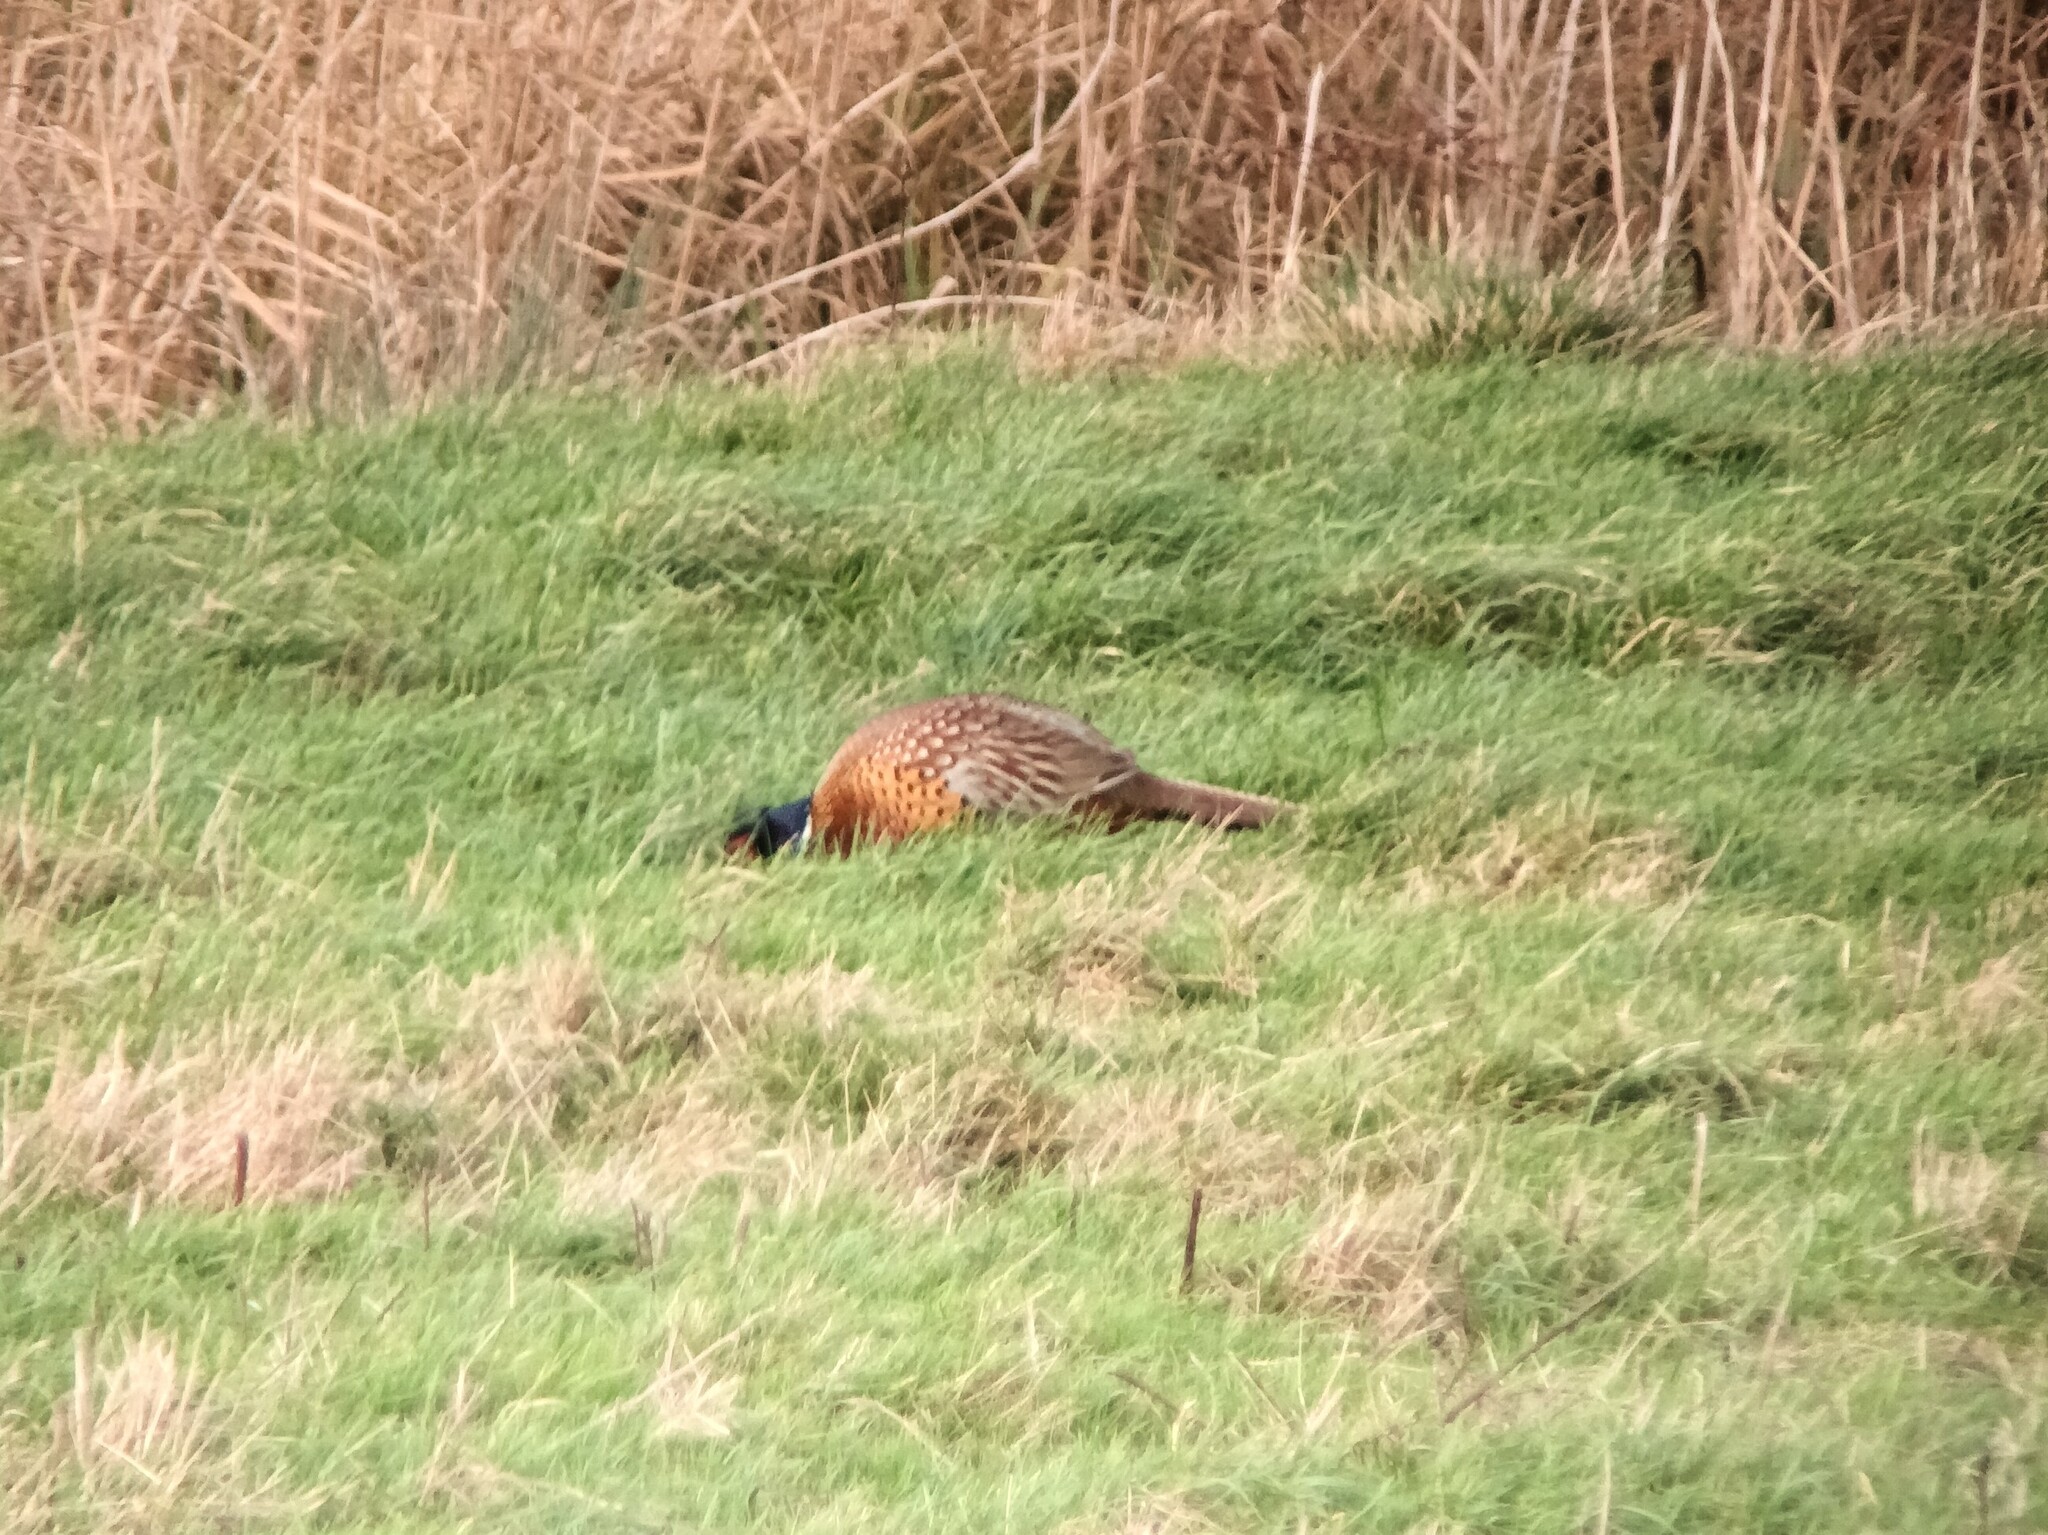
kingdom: Animalia
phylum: Chordata
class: Aves
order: Galliformes
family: Phasianidae
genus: Phasianus
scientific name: Phasianus colchicus
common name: Common pheasant
